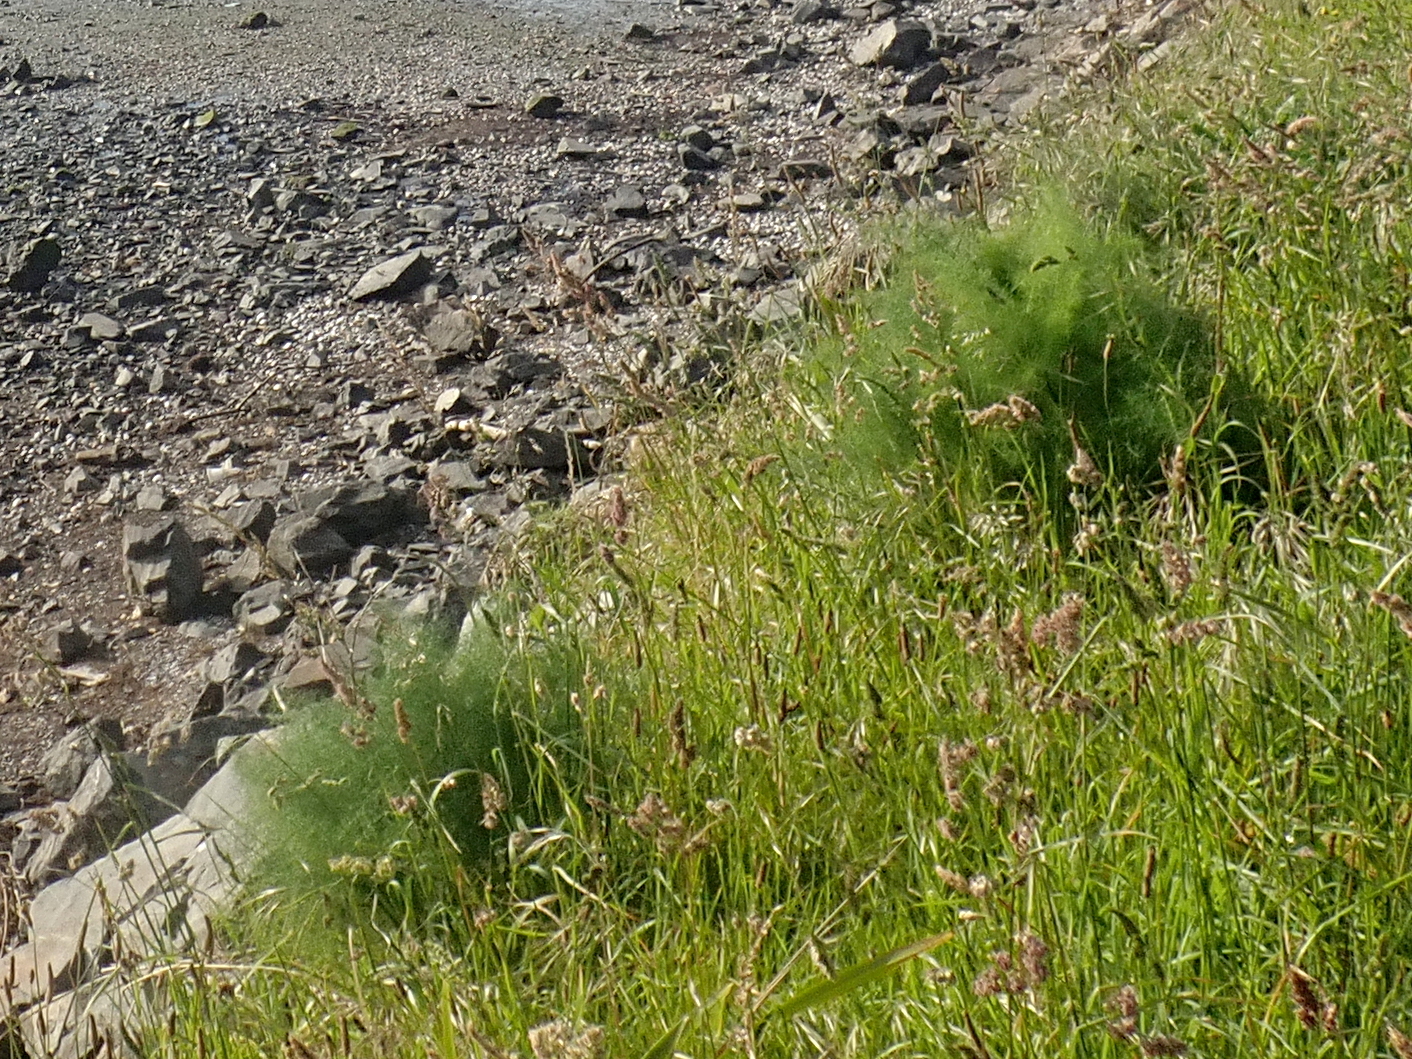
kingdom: Plantae
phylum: Tracheophyta
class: Magnoliopsida
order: Apiales
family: Apiaceae
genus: Foeniculum
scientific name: Foeniculum vulgare
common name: Fennel
